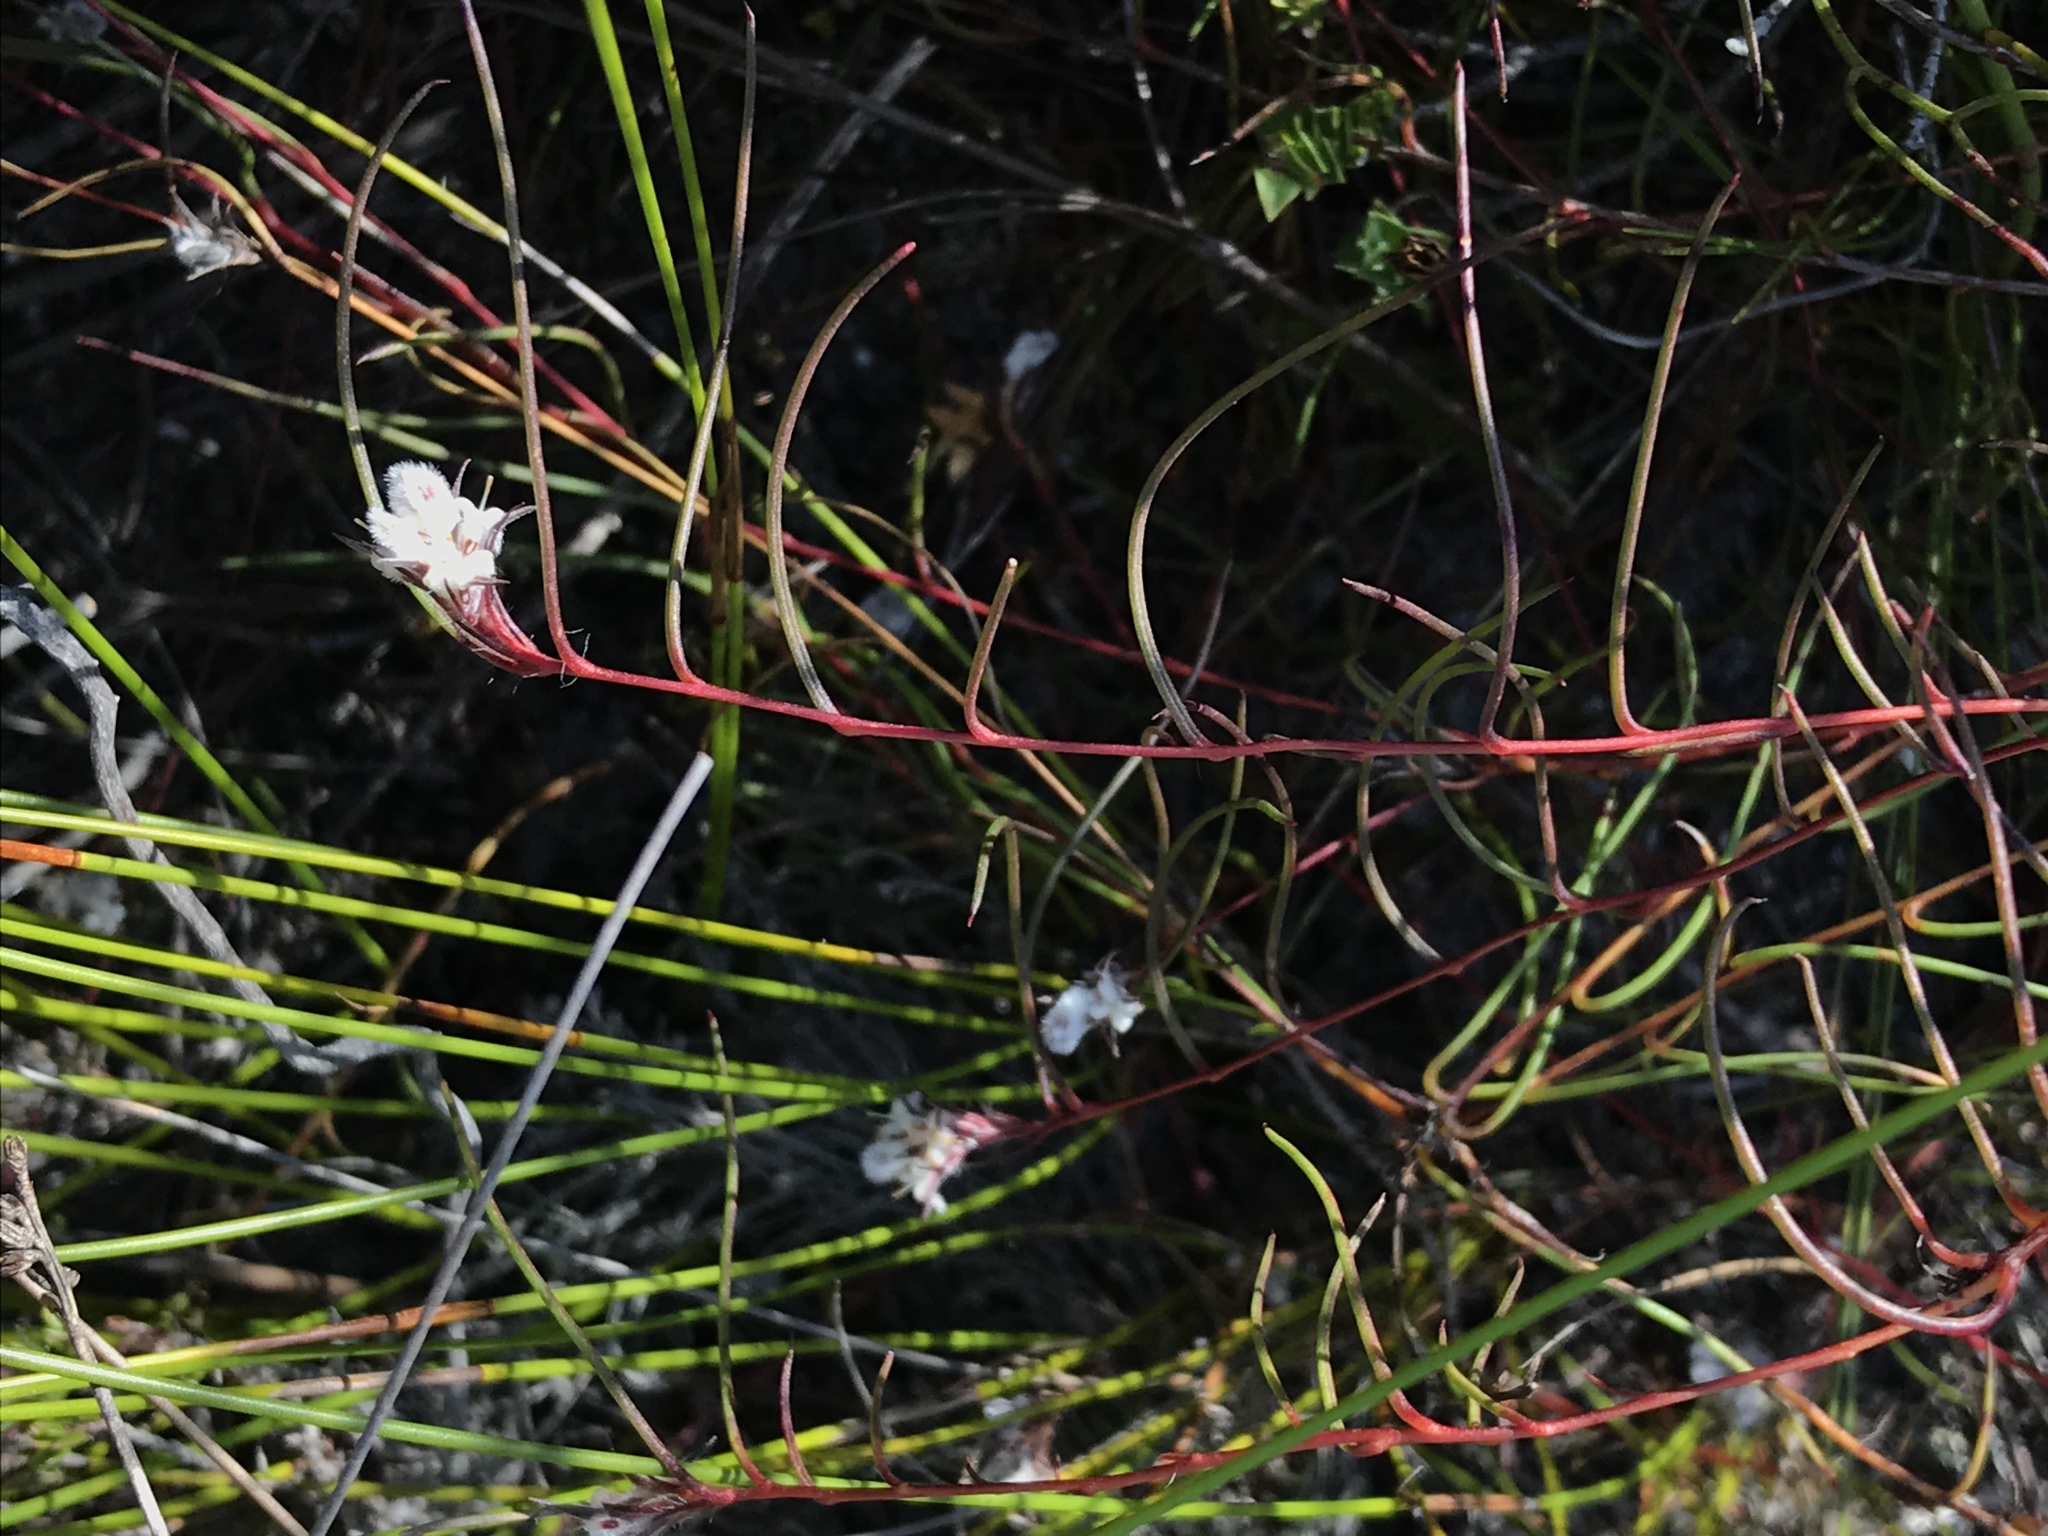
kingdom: Plantae
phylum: Tracheophyta
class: Magnoliopsida
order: Proteales
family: Proteaceae
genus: Serruria
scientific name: Serruria rebeloi
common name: Clandestine spiderhead
